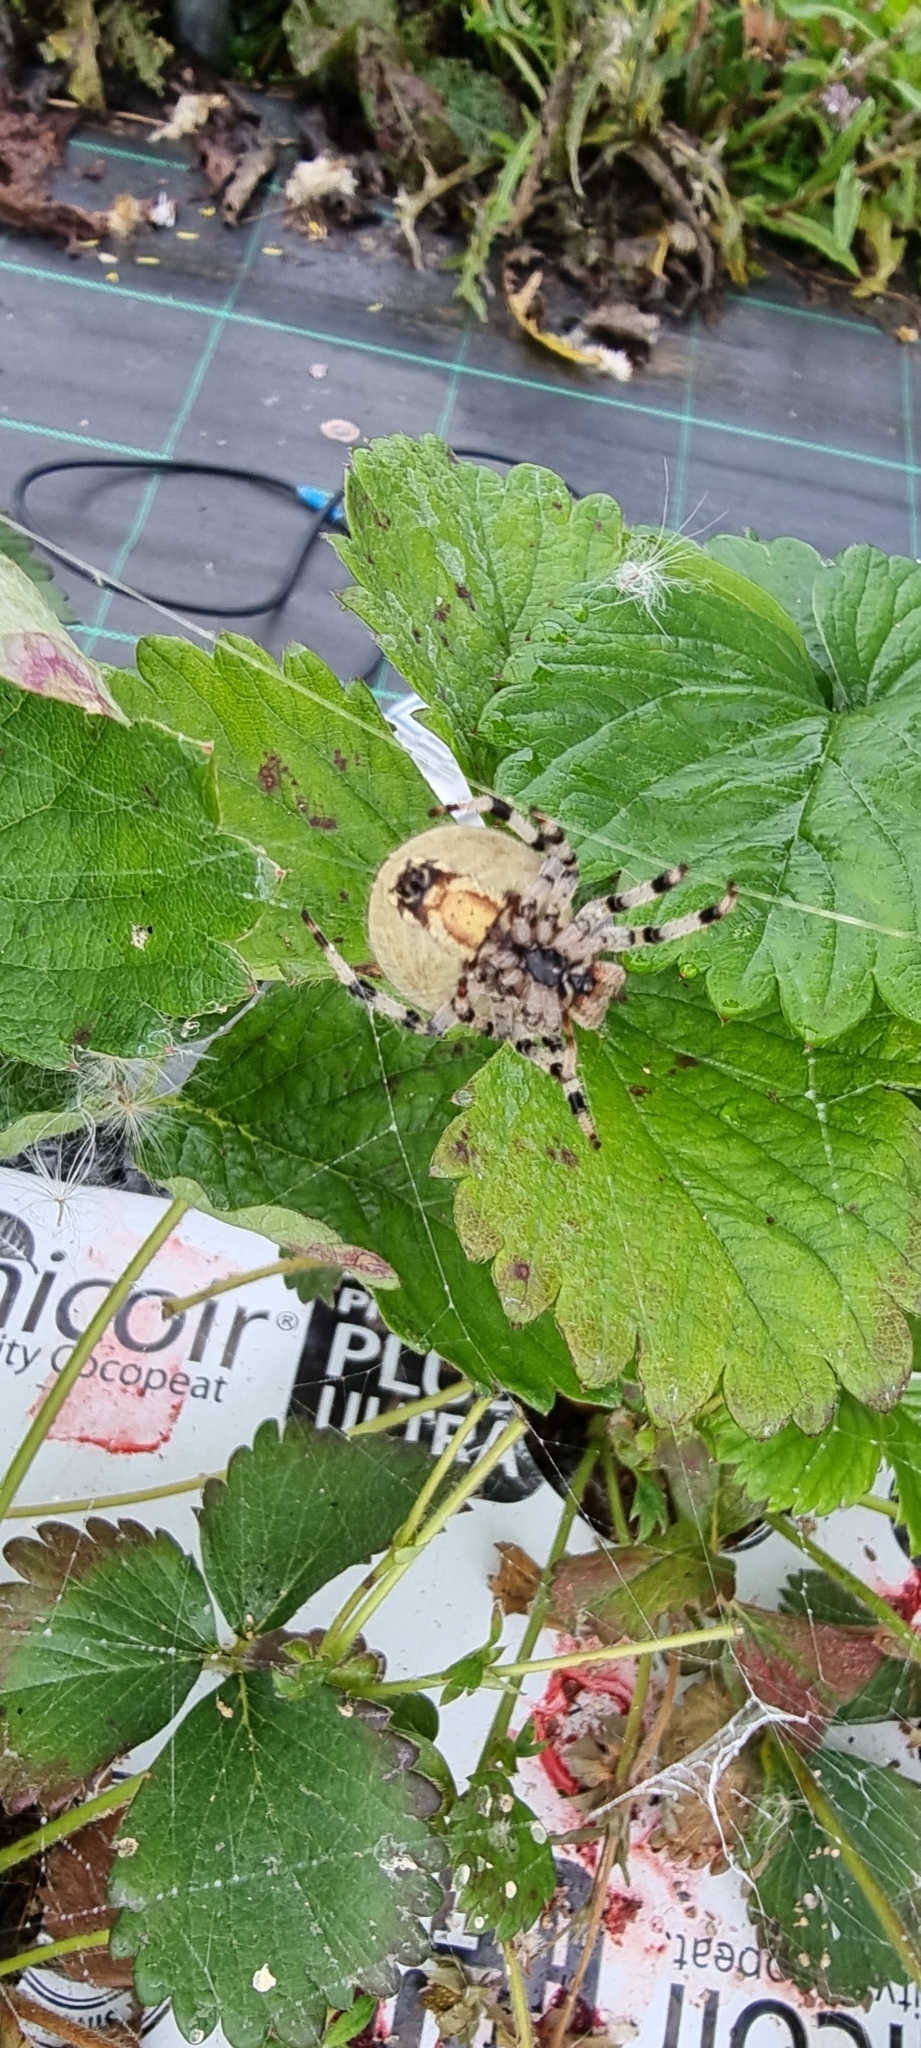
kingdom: Animalia
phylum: Arthropoda
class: Arachnida
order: Araneae
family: Araneidae
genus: Araneus
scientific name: Araneus quadratus
